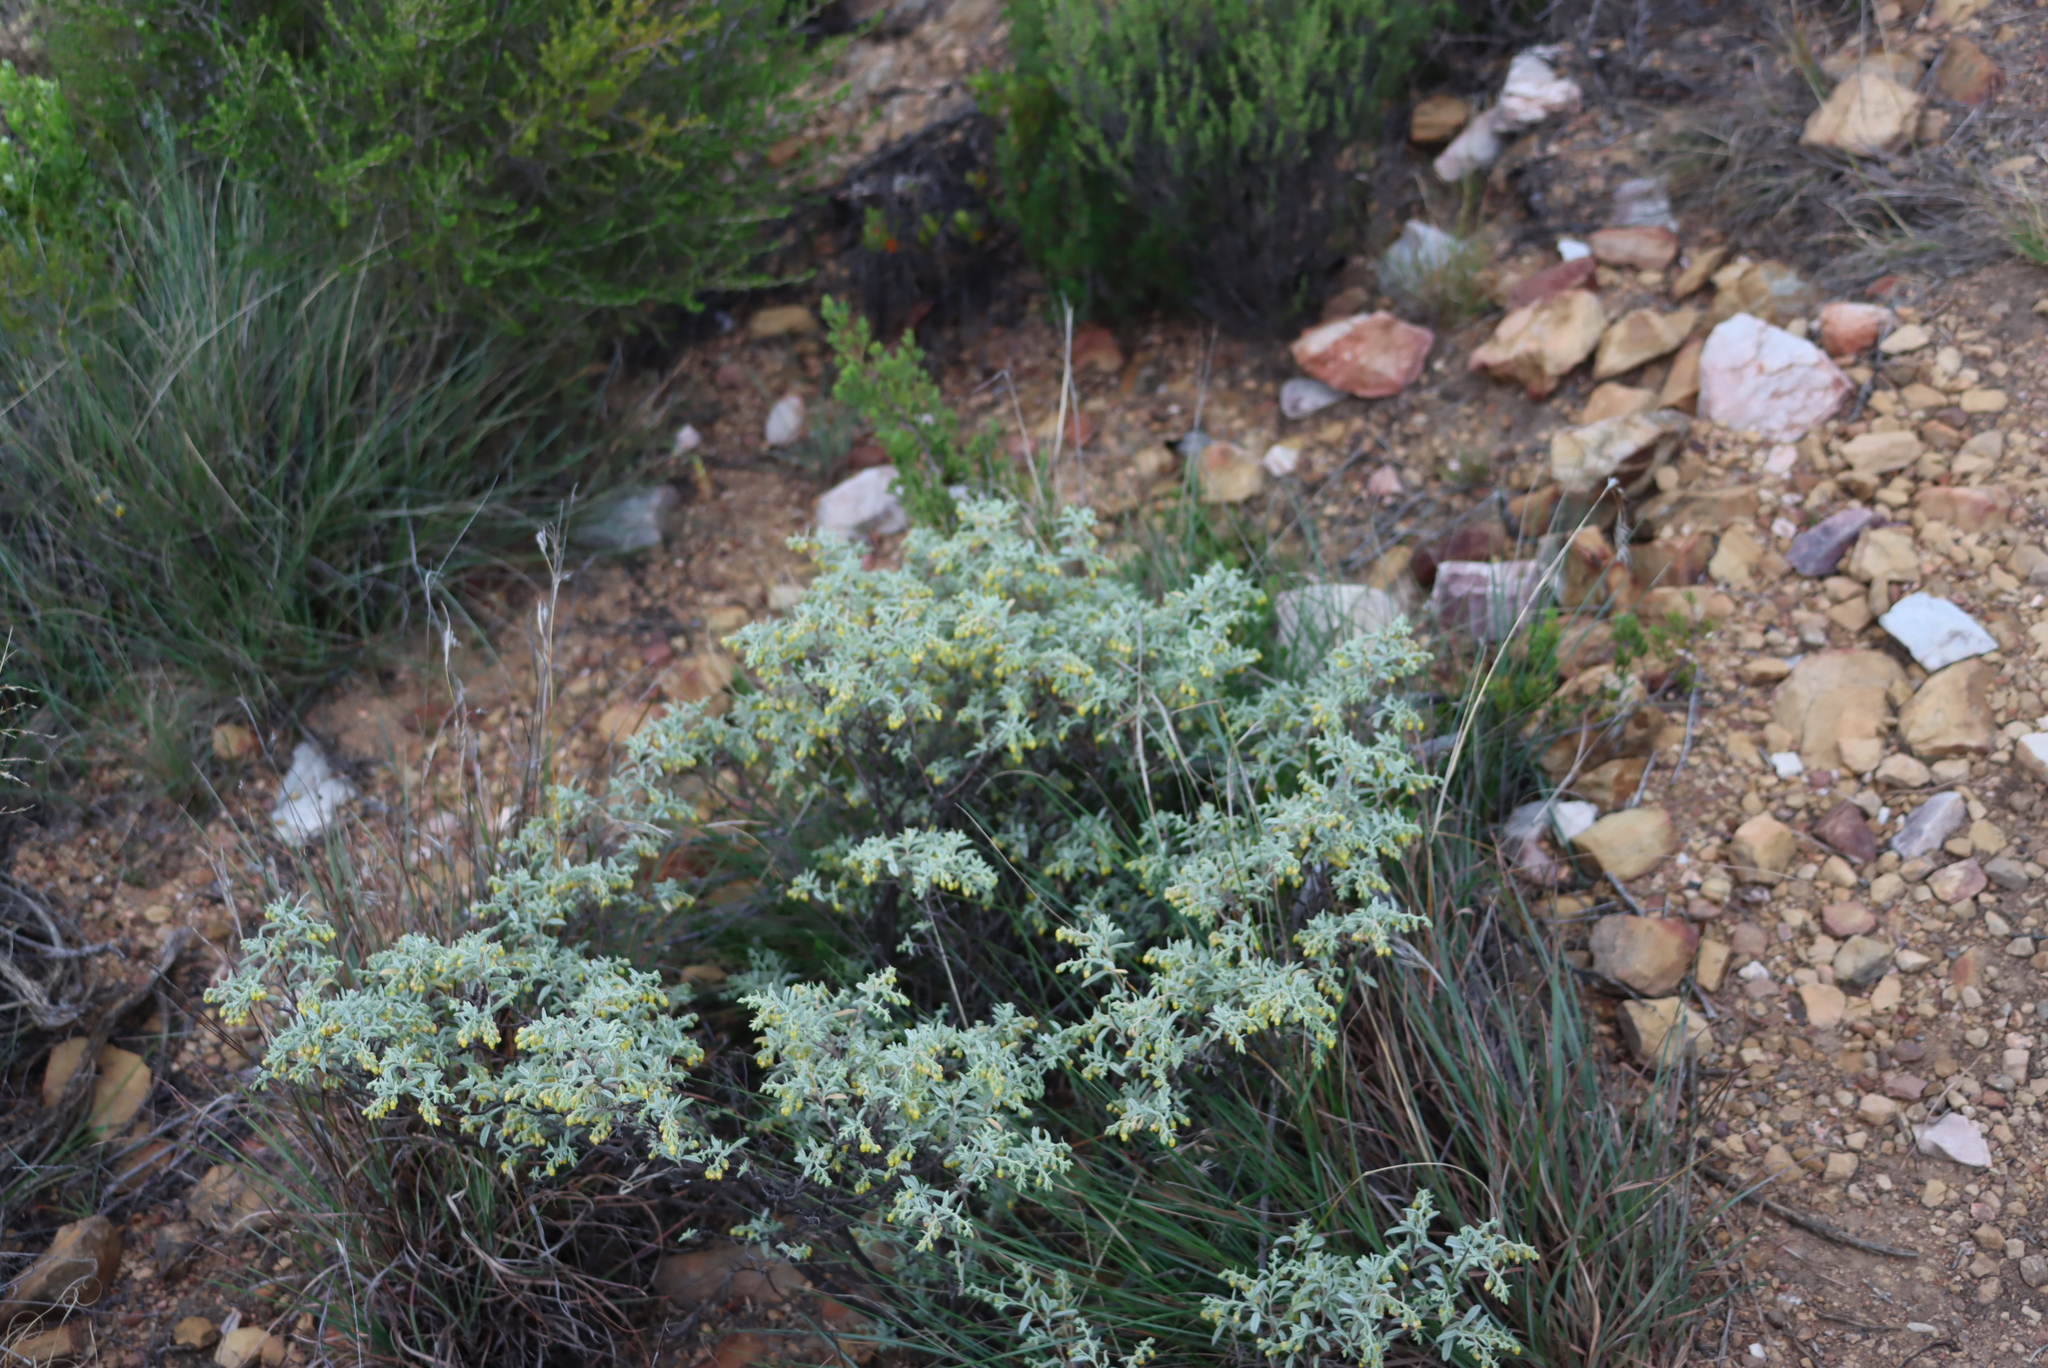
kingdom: Plantae
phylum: Tracheophyta
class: Magnoliopsida
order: Malvales
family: Malvaceae
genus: Hermannia
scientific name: Hermannia holosericea
